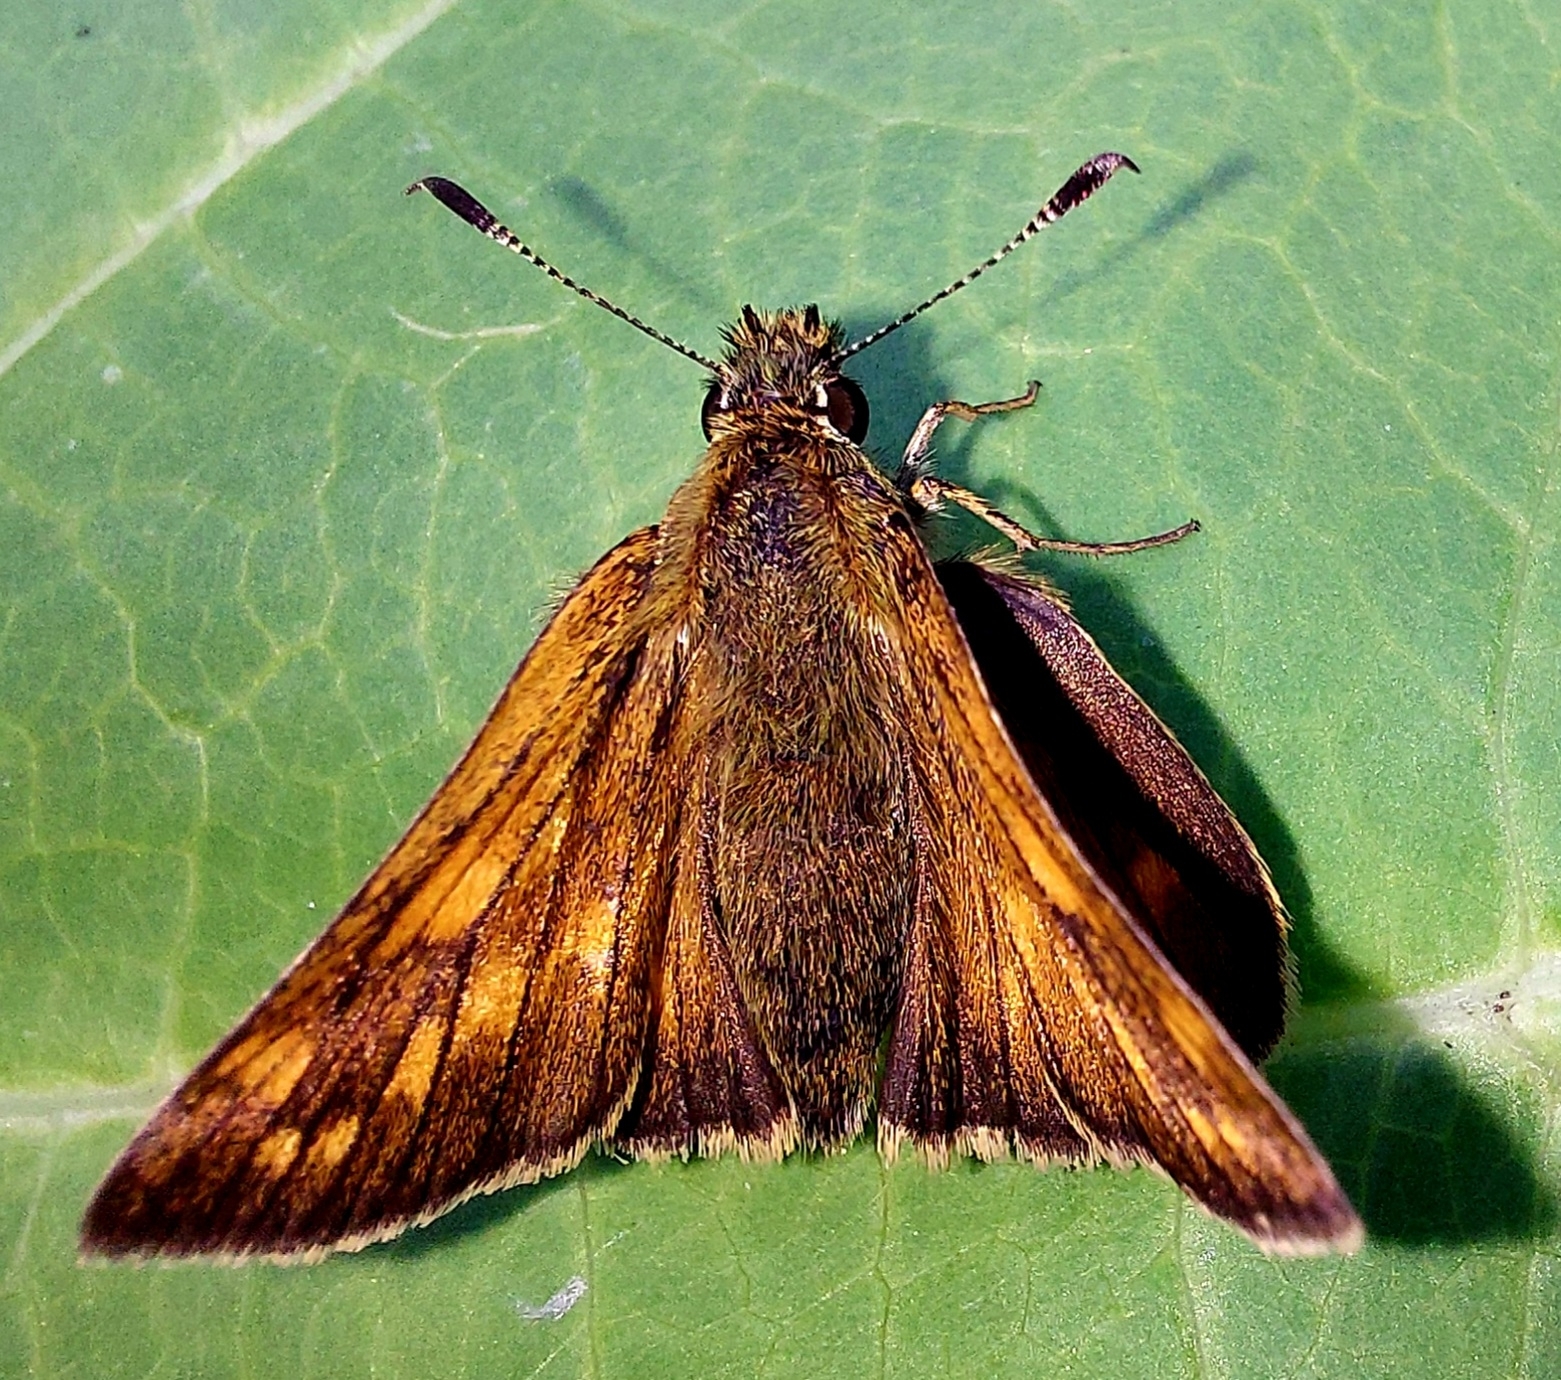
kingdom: Animalia
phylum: Arthropoda
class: Insecta
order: Lepidoptera
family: Hesperiidae
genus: Ochlodes
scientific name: Ochlodes venata
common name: Large skipper
